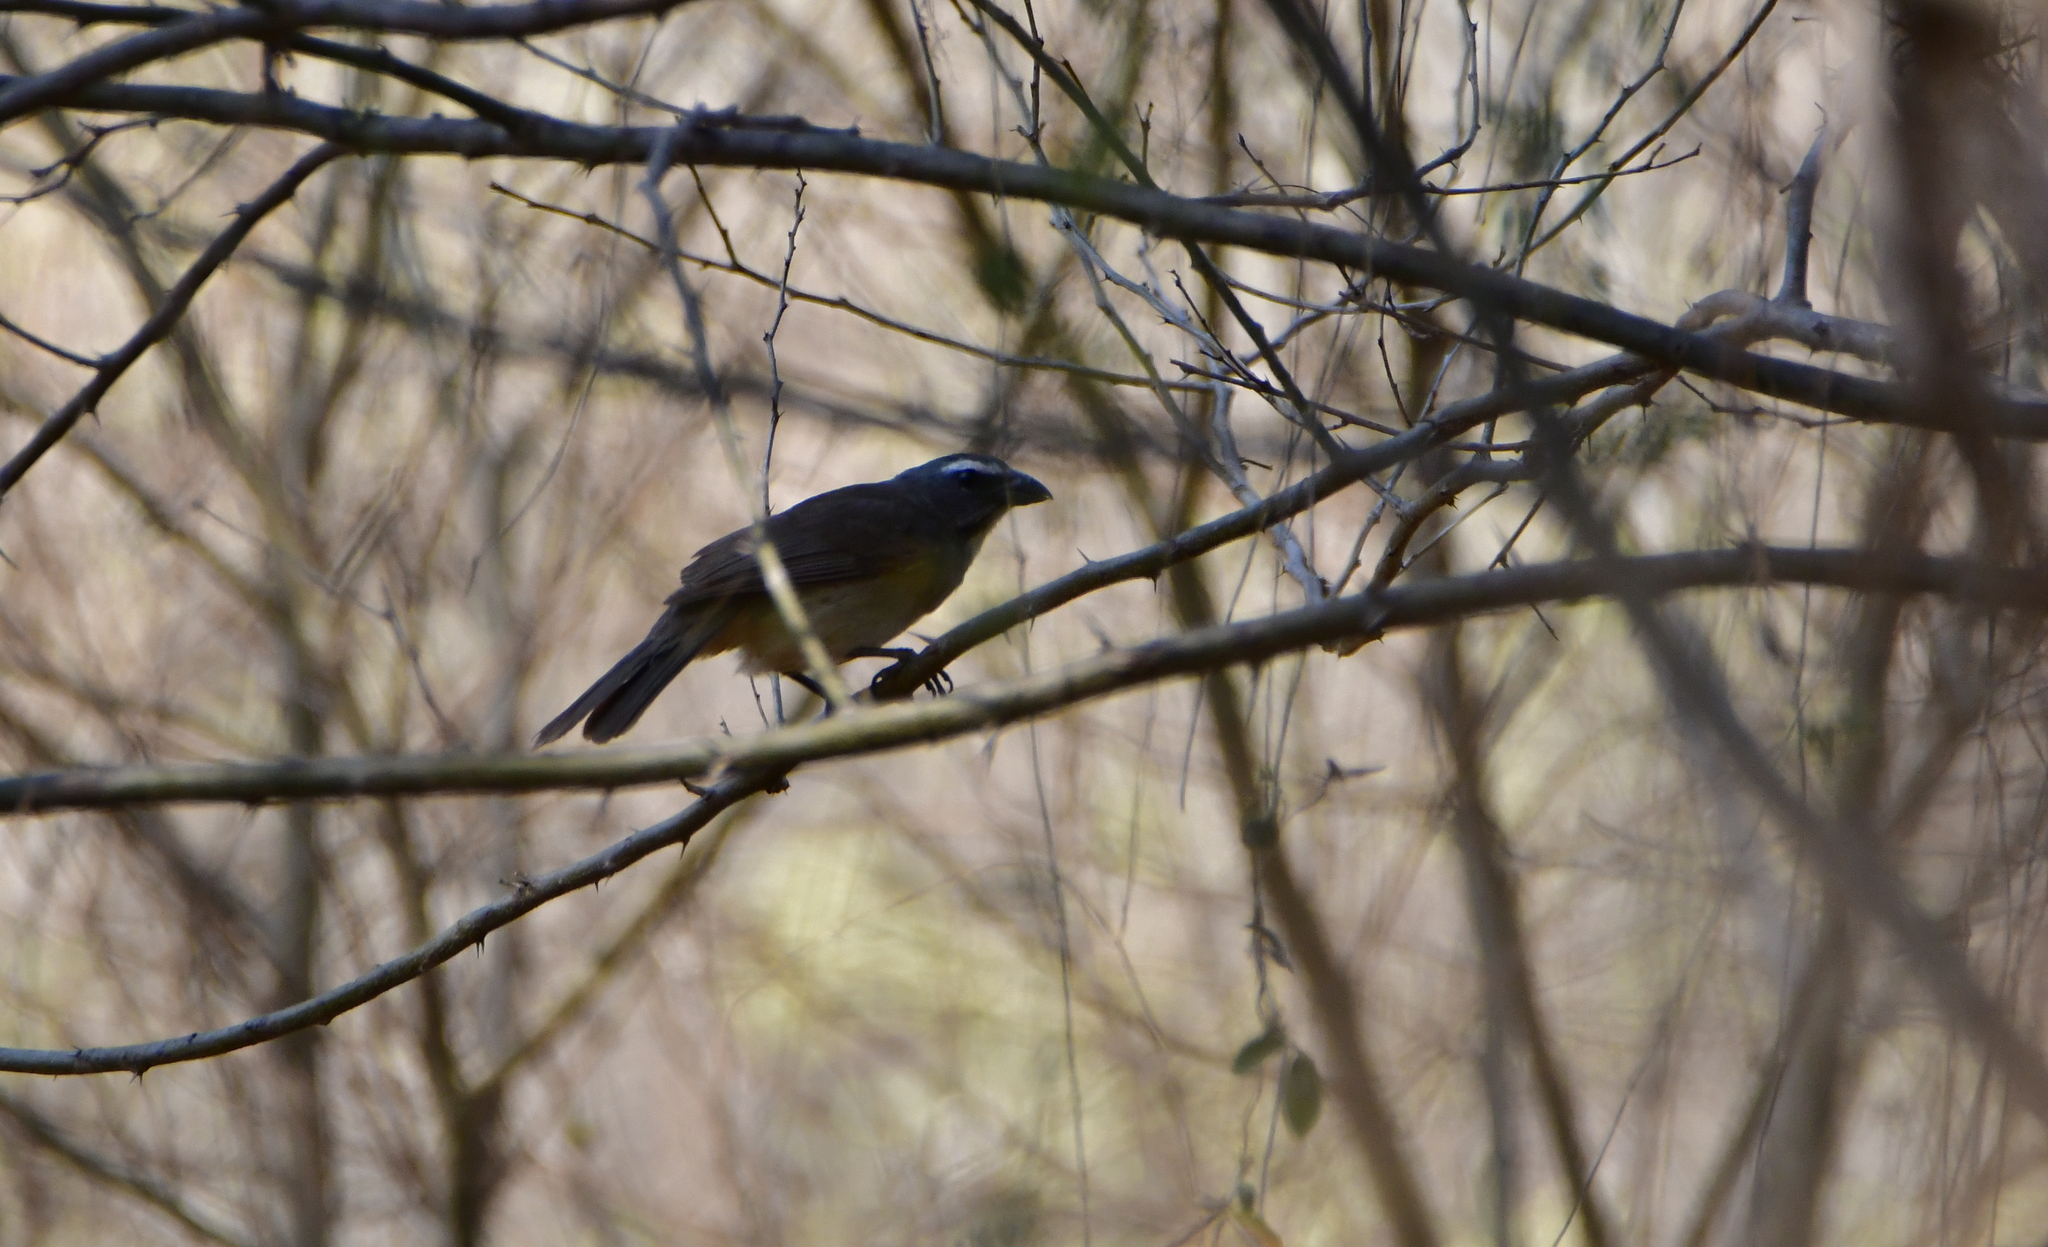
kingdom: Animalia
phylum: Chordata
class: Aves
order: Passeriformes
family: Thraupidae
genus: Saltator
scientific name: Saltator grandis
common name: Cinnamon-bellied saltator
